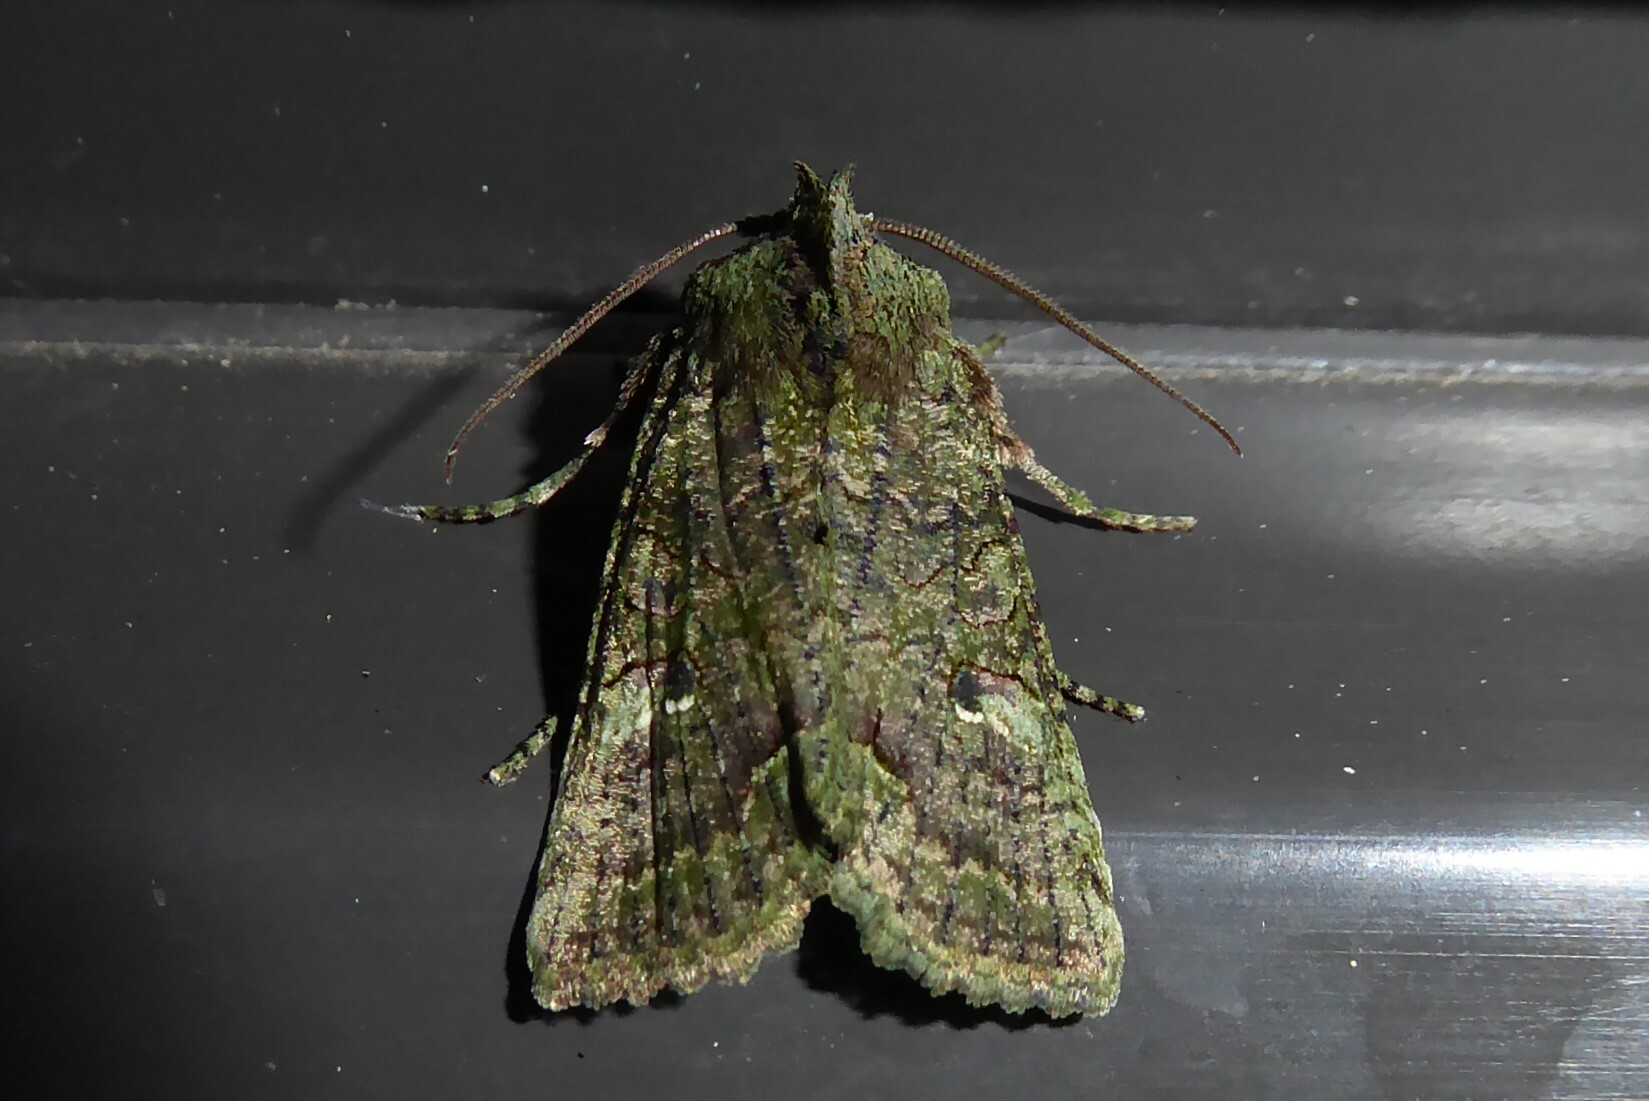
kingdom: Animalia
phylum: Arthropoda
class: Insecta
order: Lepidoptera
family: Noctuidae
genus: Meterana
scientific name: Meterana levis
